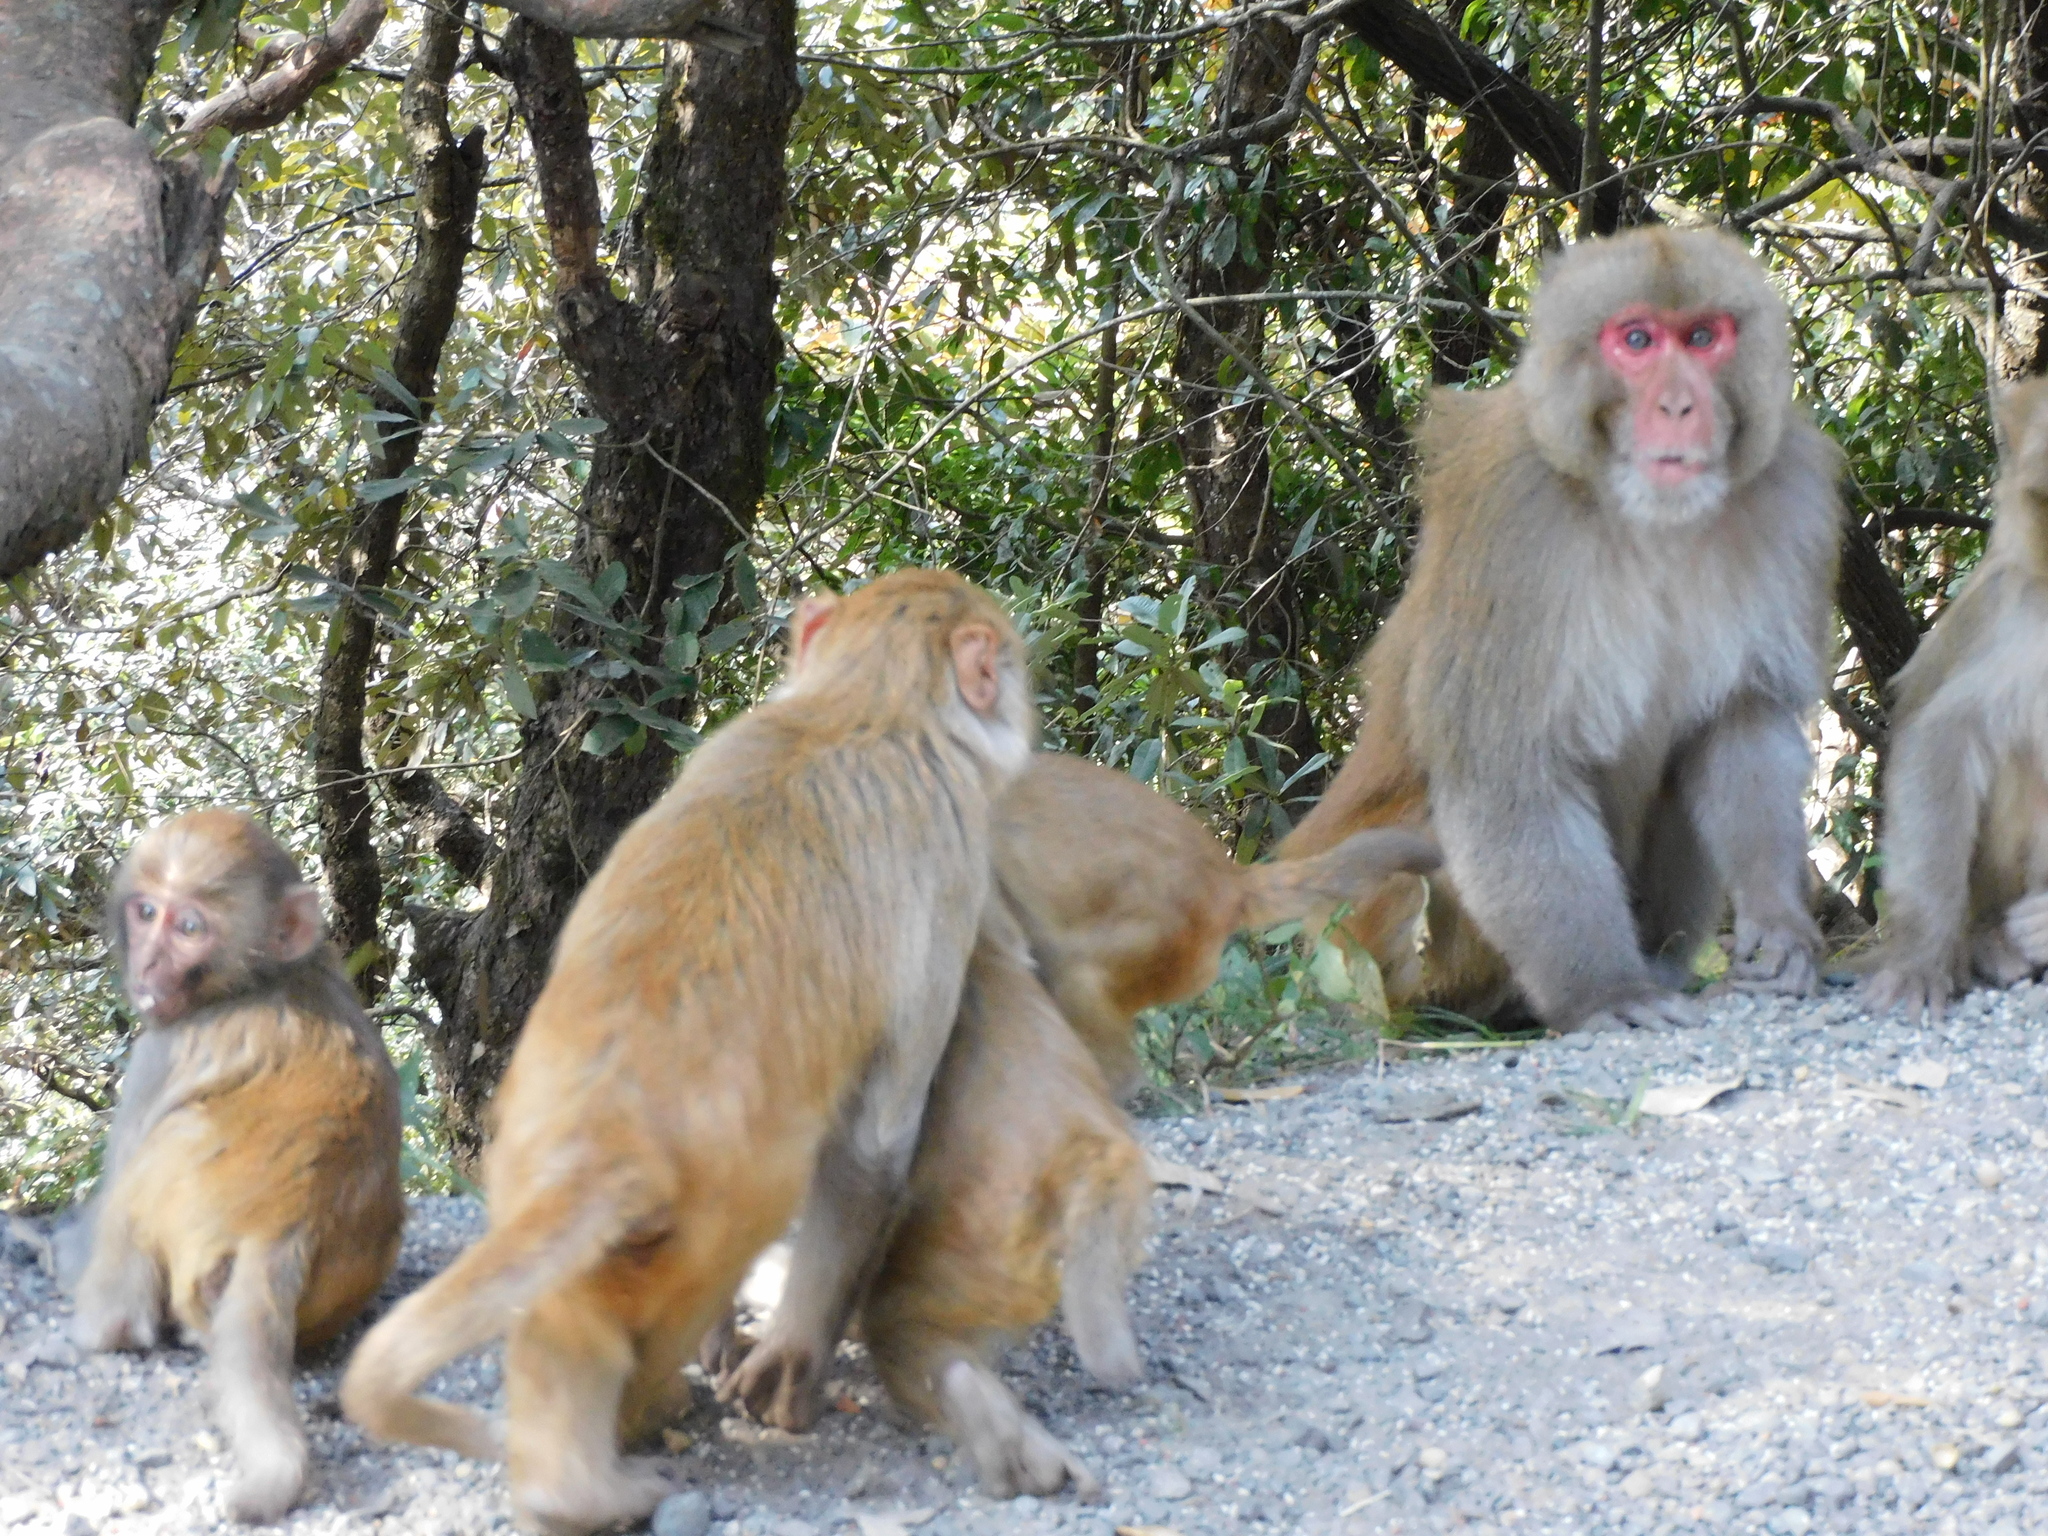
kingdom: Animalia
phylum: Chordata
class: Mammalia
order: Primates
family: Cercopithecidae
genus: Macaca
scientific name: Macaca mulatta
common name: Rhesus monkey
